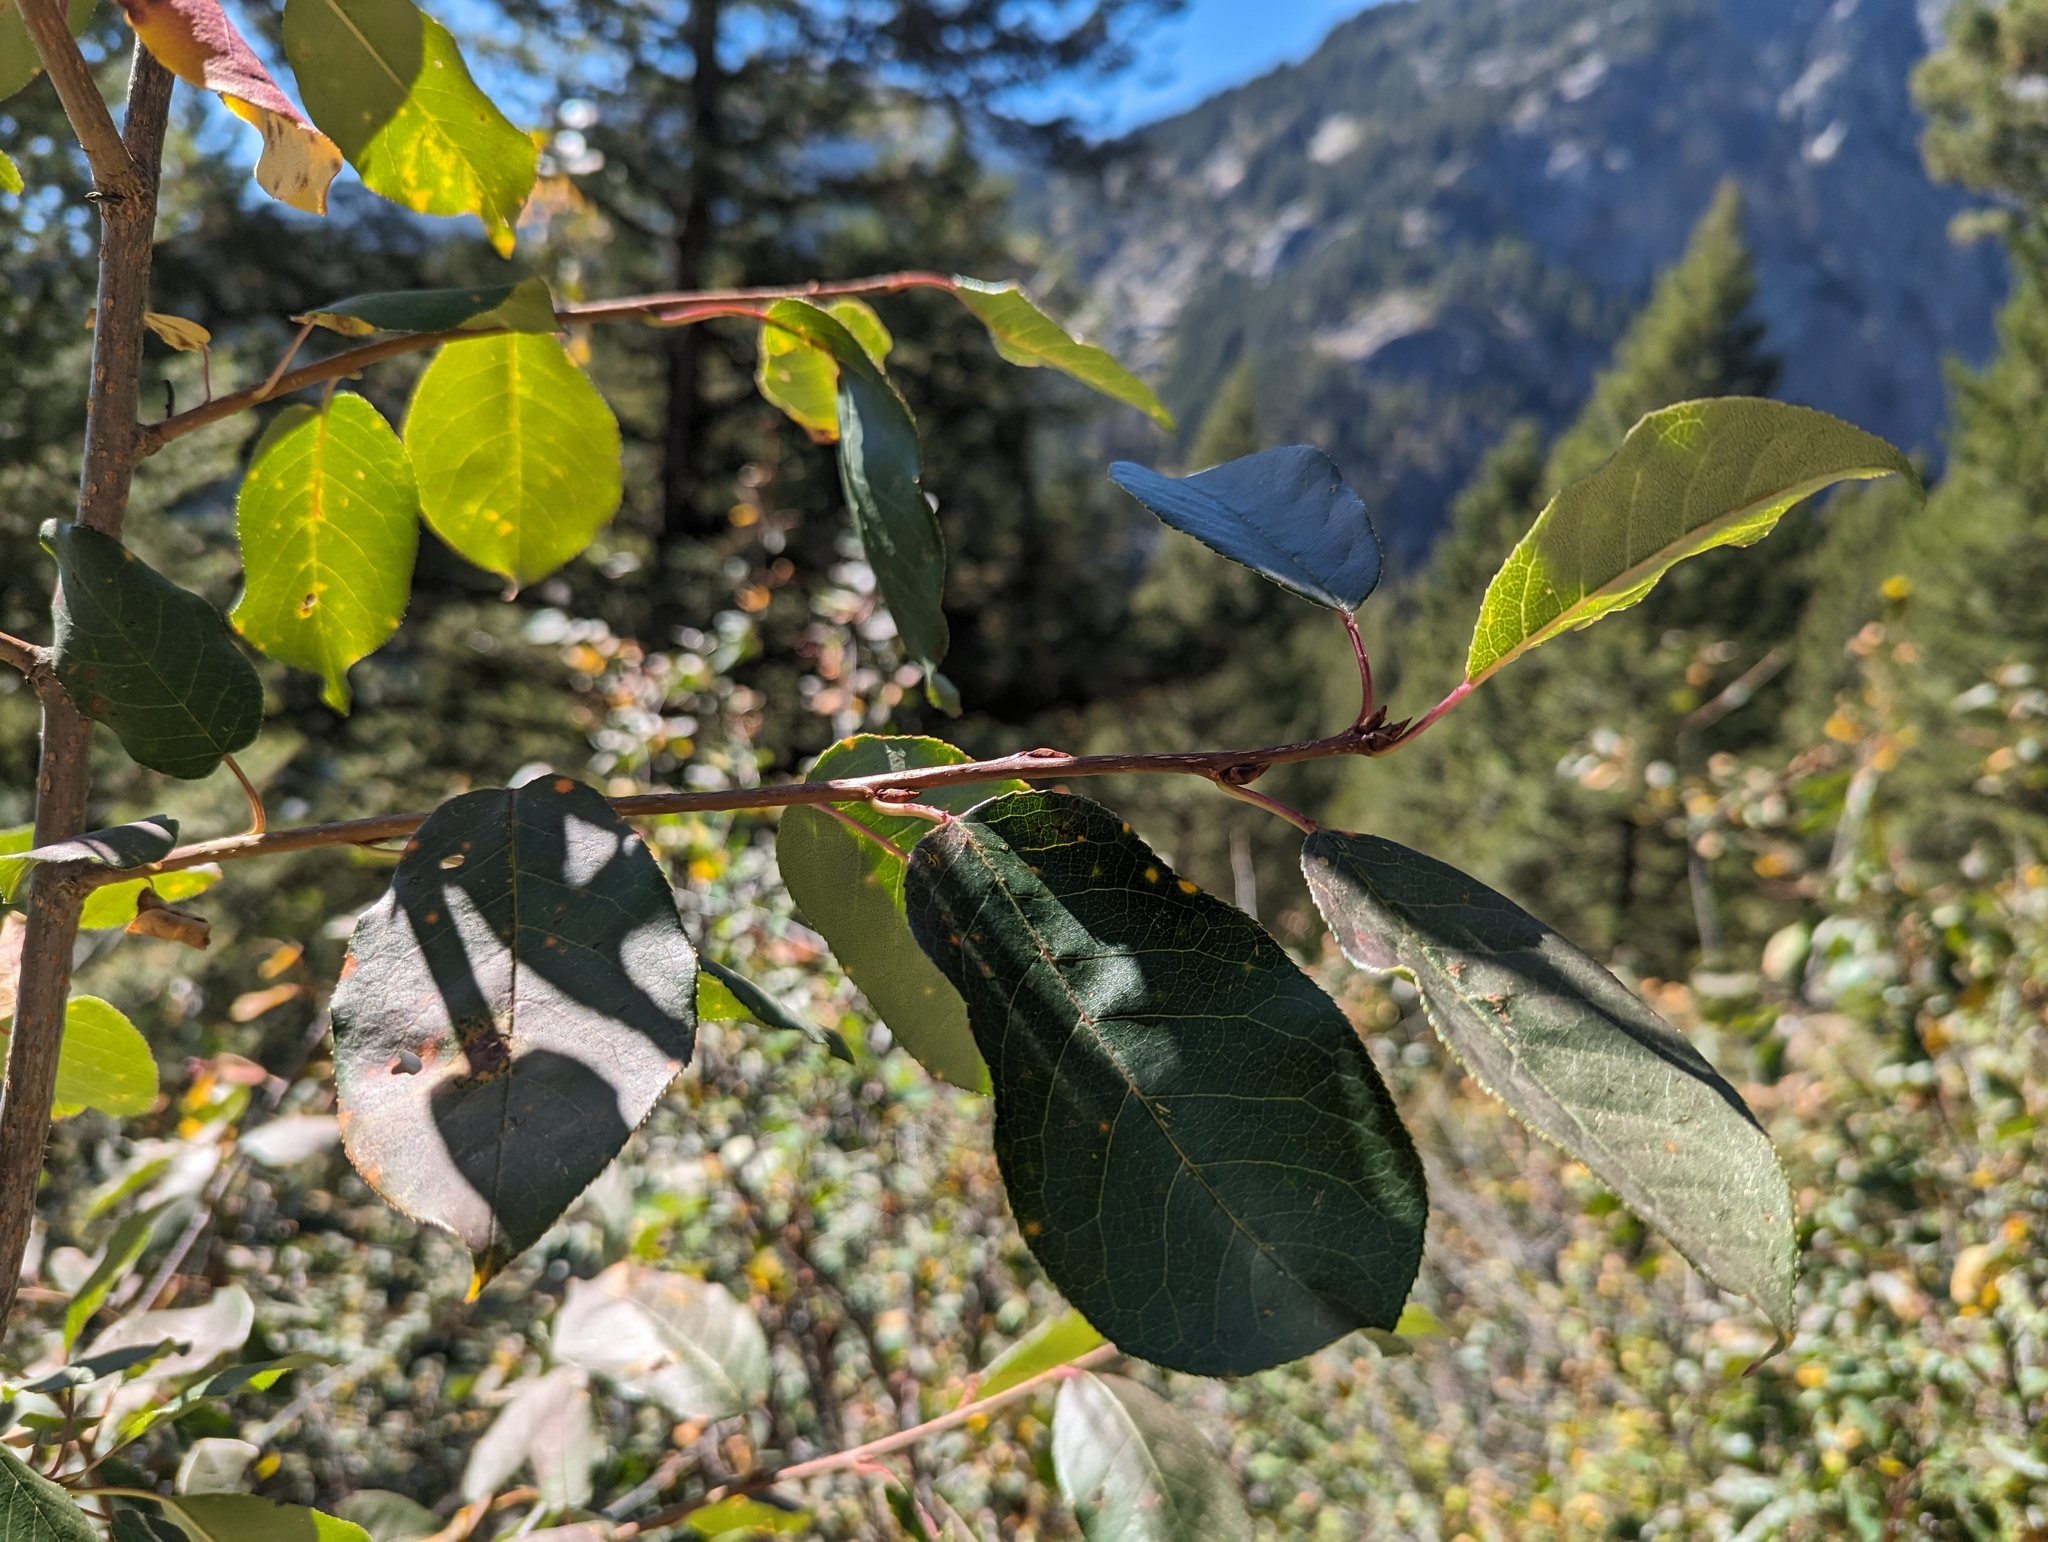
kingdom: Plantae
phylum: Tracheophyta
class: Magnoliopsida
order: Rosales
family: Rosaceae
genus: Prunus
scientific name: Prunus virginiana
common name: Chokecherry
